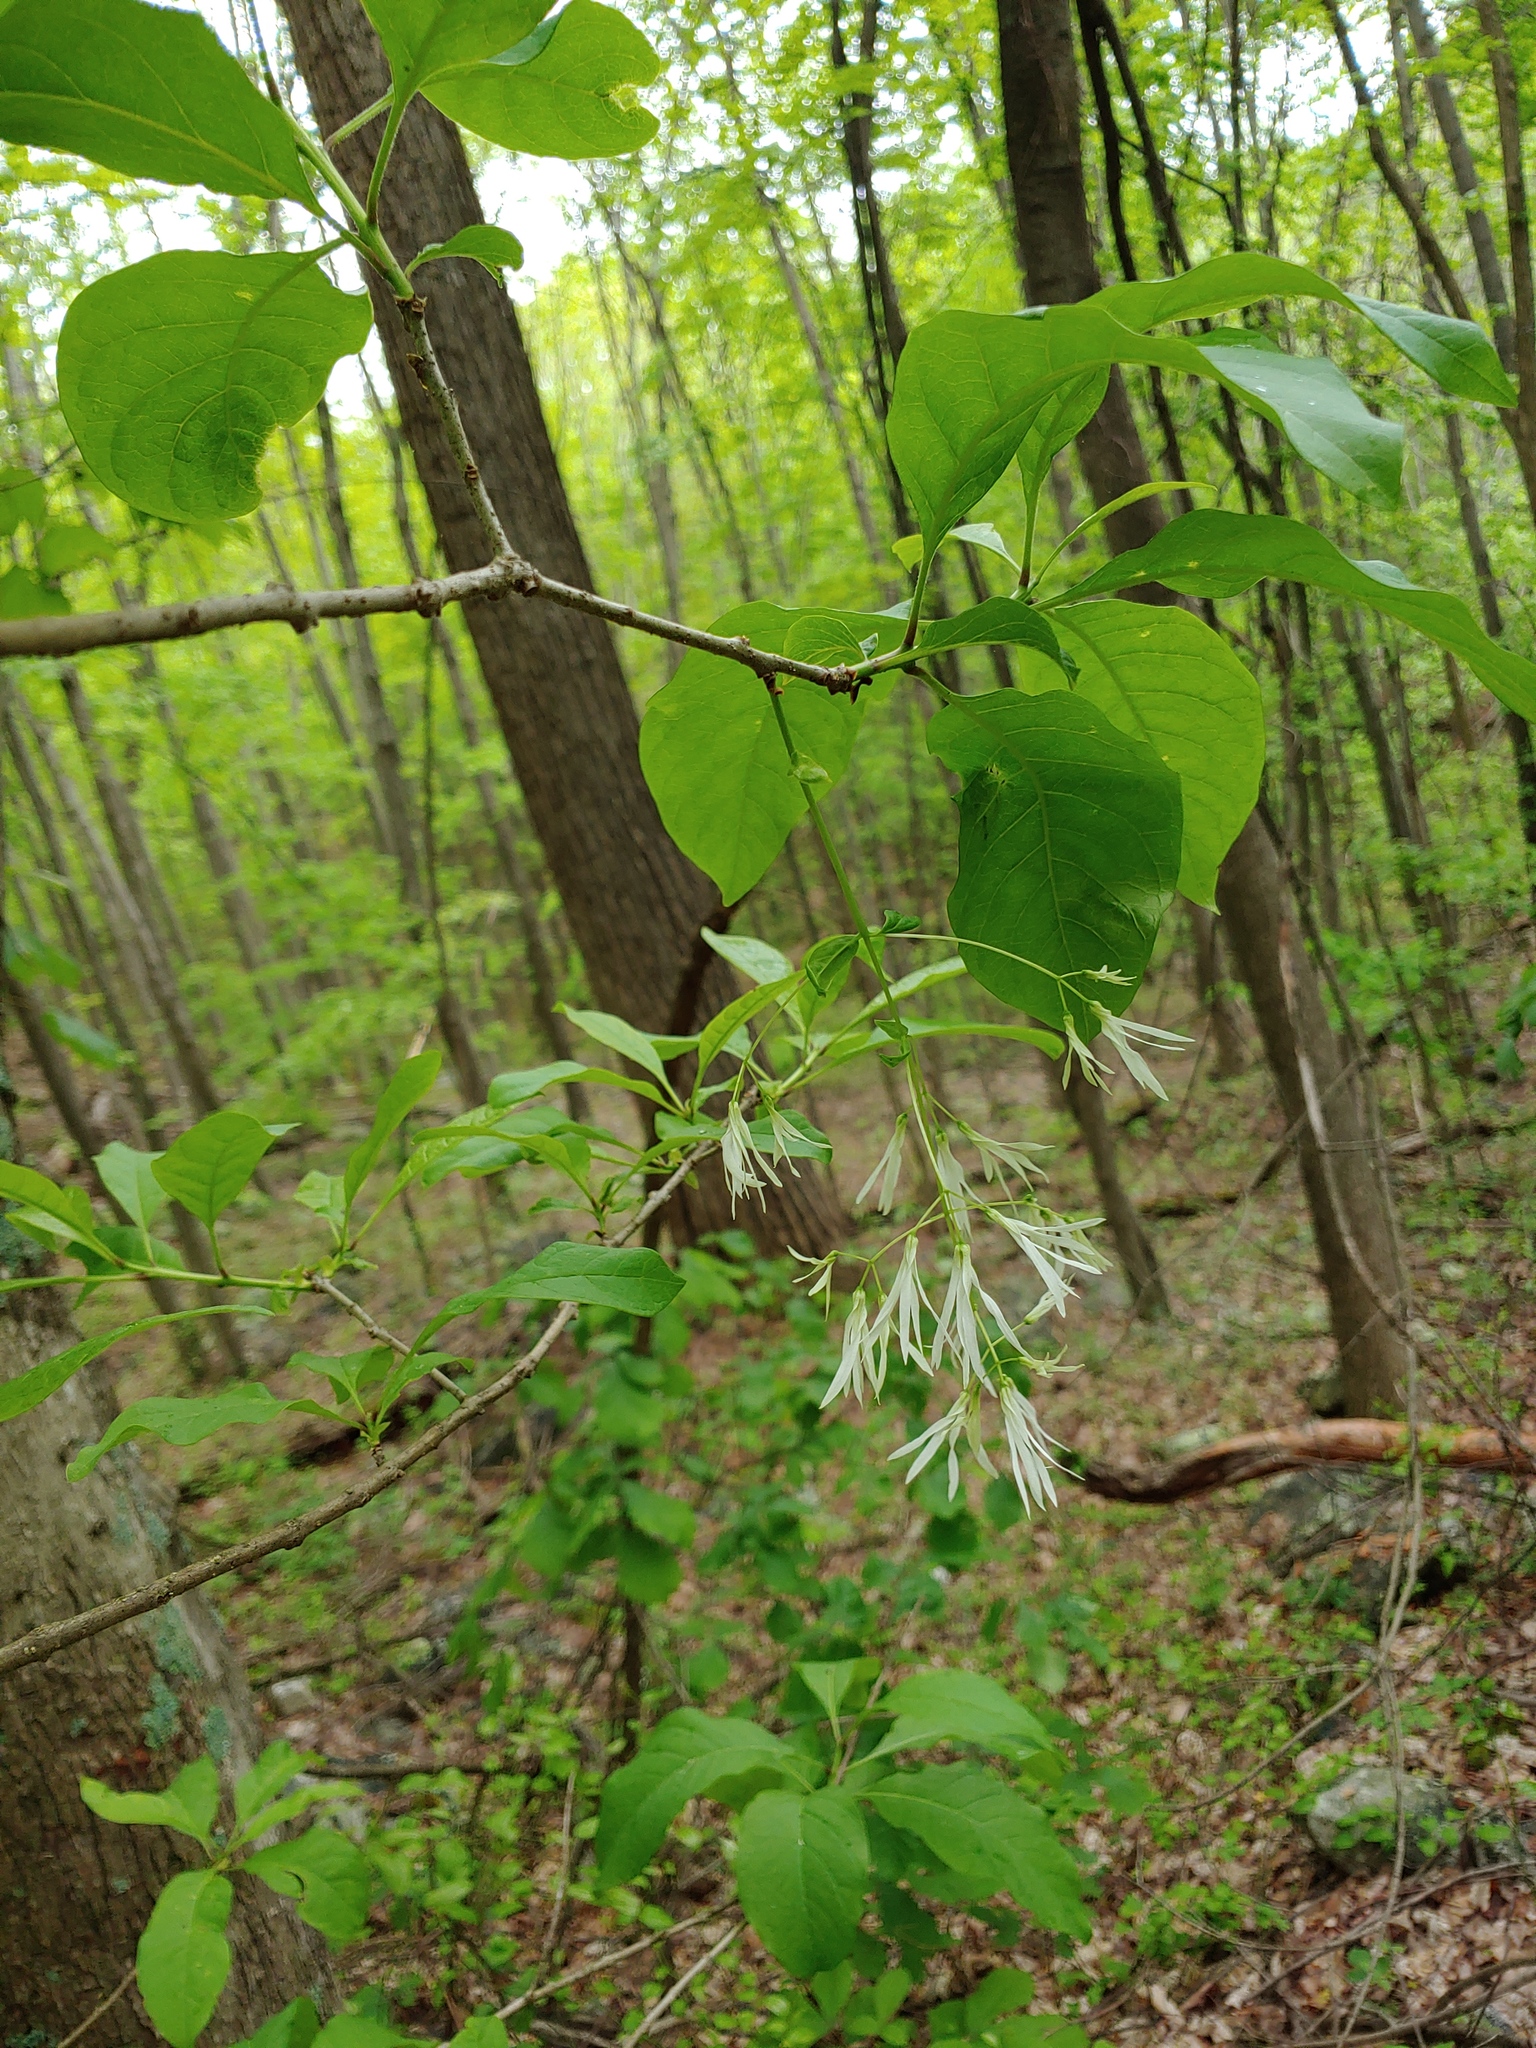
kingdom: Plantae
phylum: Tracheophyta
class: Magnoliopsida
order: Lamiales
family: Oleaceae
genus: Chionanthus
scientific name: Chionanthus virginicus
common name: American fringetree
